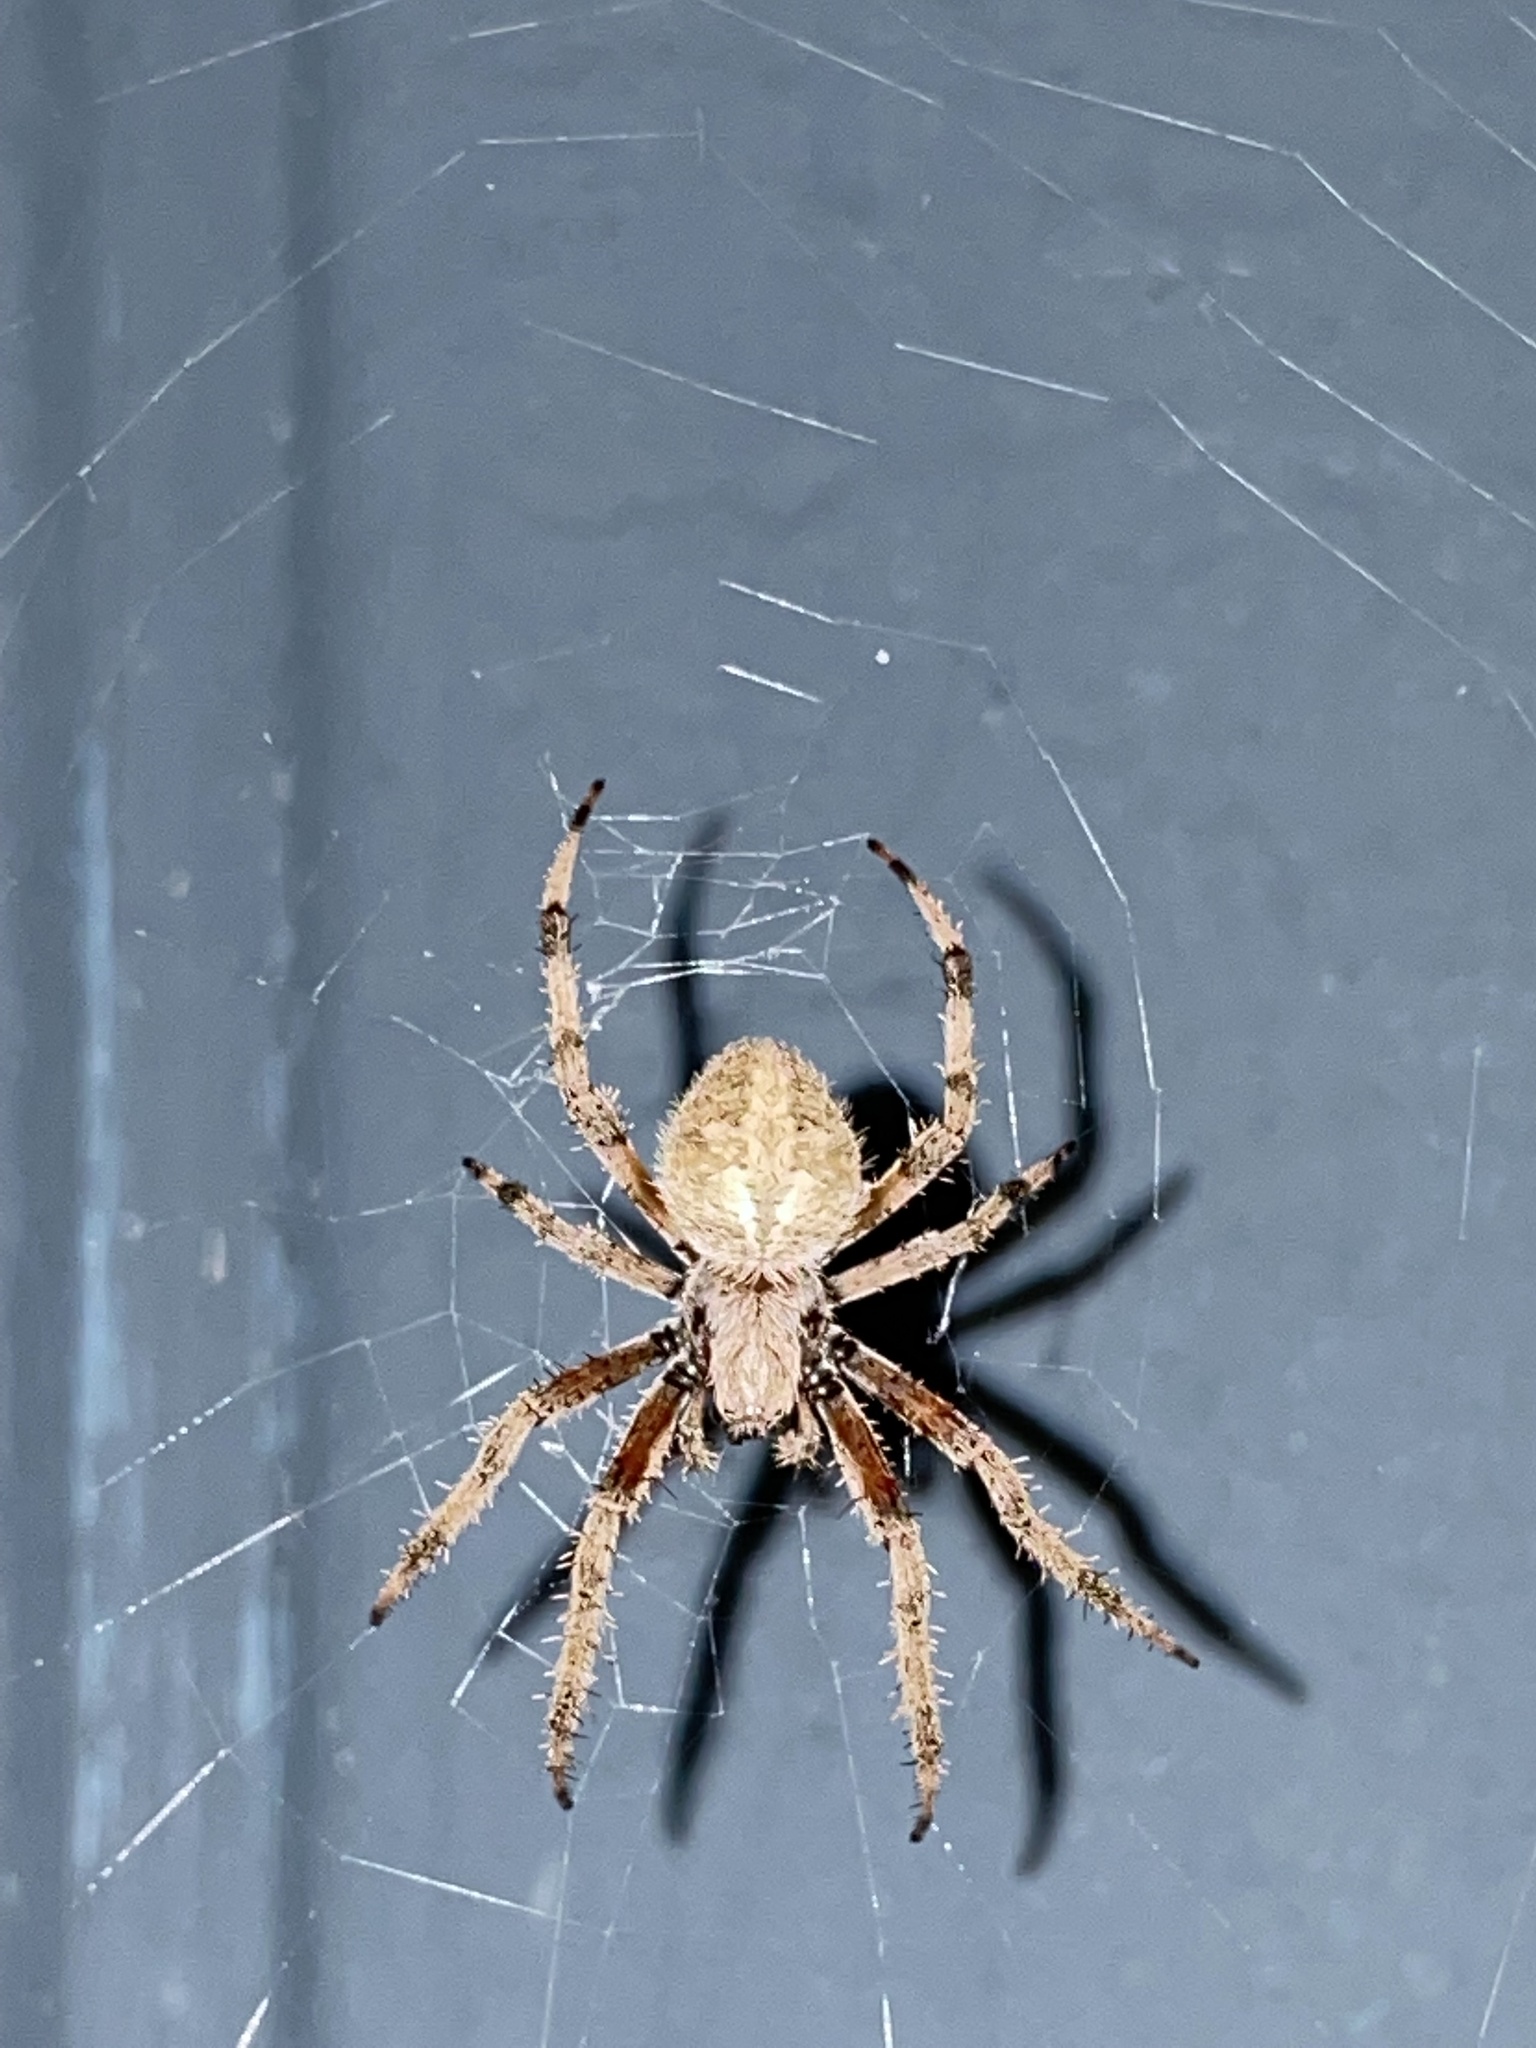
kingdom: Animalia
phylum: Arthropoda
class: Arachnida
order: Araneae
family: Araneidae
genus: Neoscona
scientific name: Neoscona crucifera
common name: Spotted orbweaver
